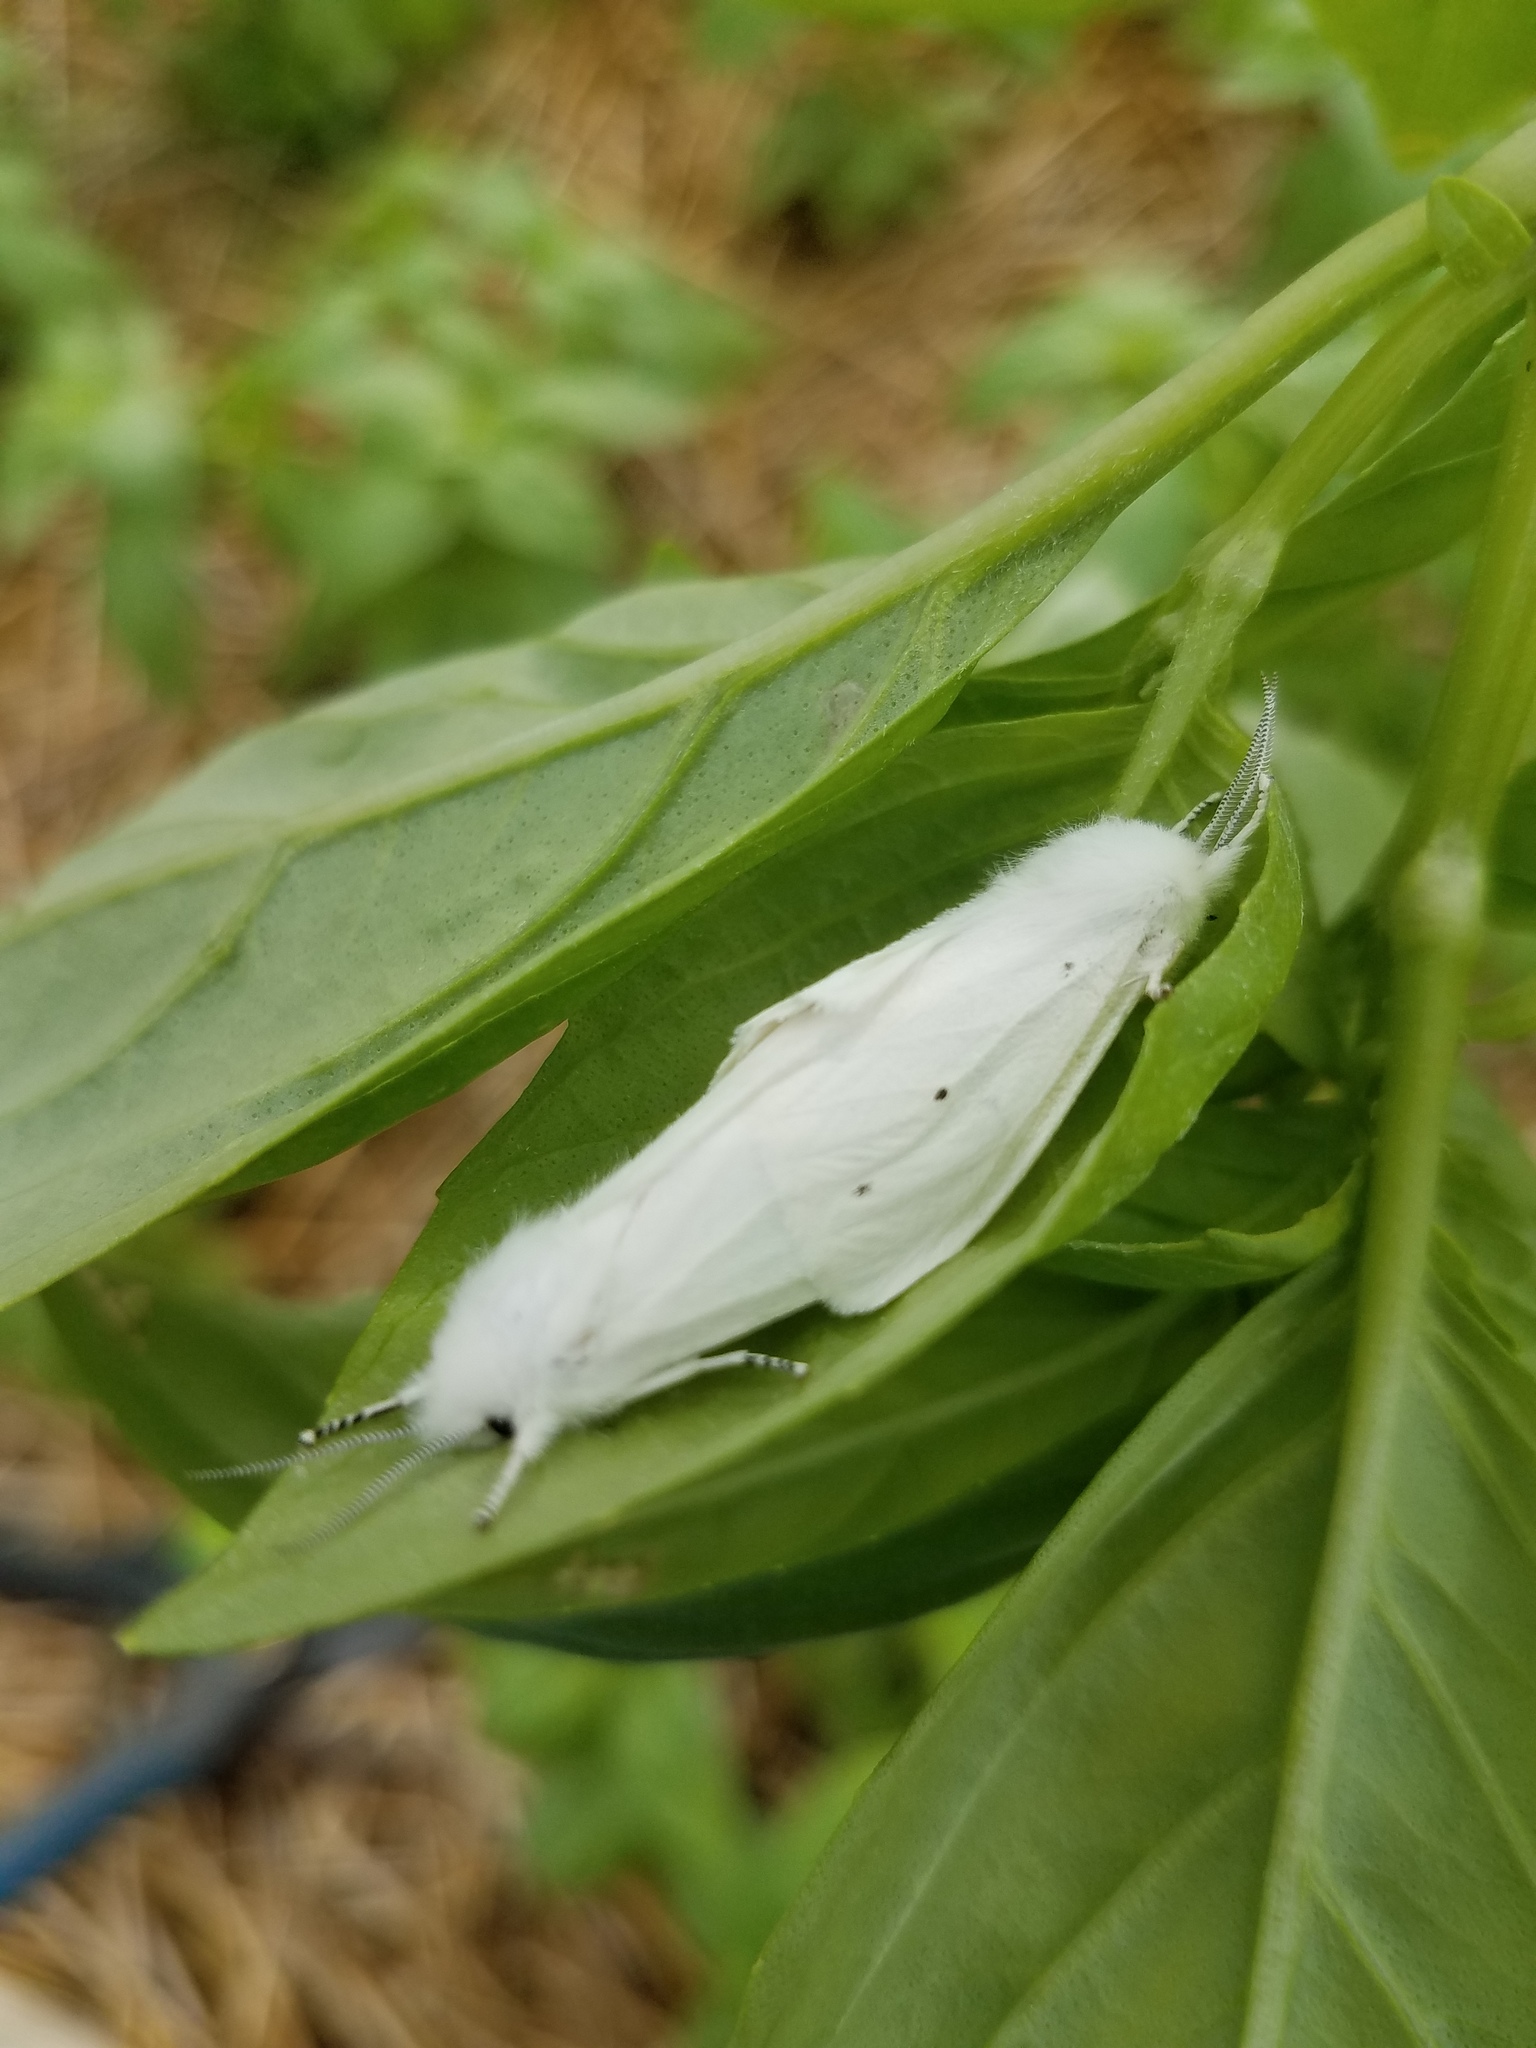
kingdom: Animalia
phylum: Arthropoda
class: Insecta
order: Lepidoptera
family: Erebidae
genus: Spilosoma
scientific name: Spilosoma virginica
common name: Virginia tiger moth
